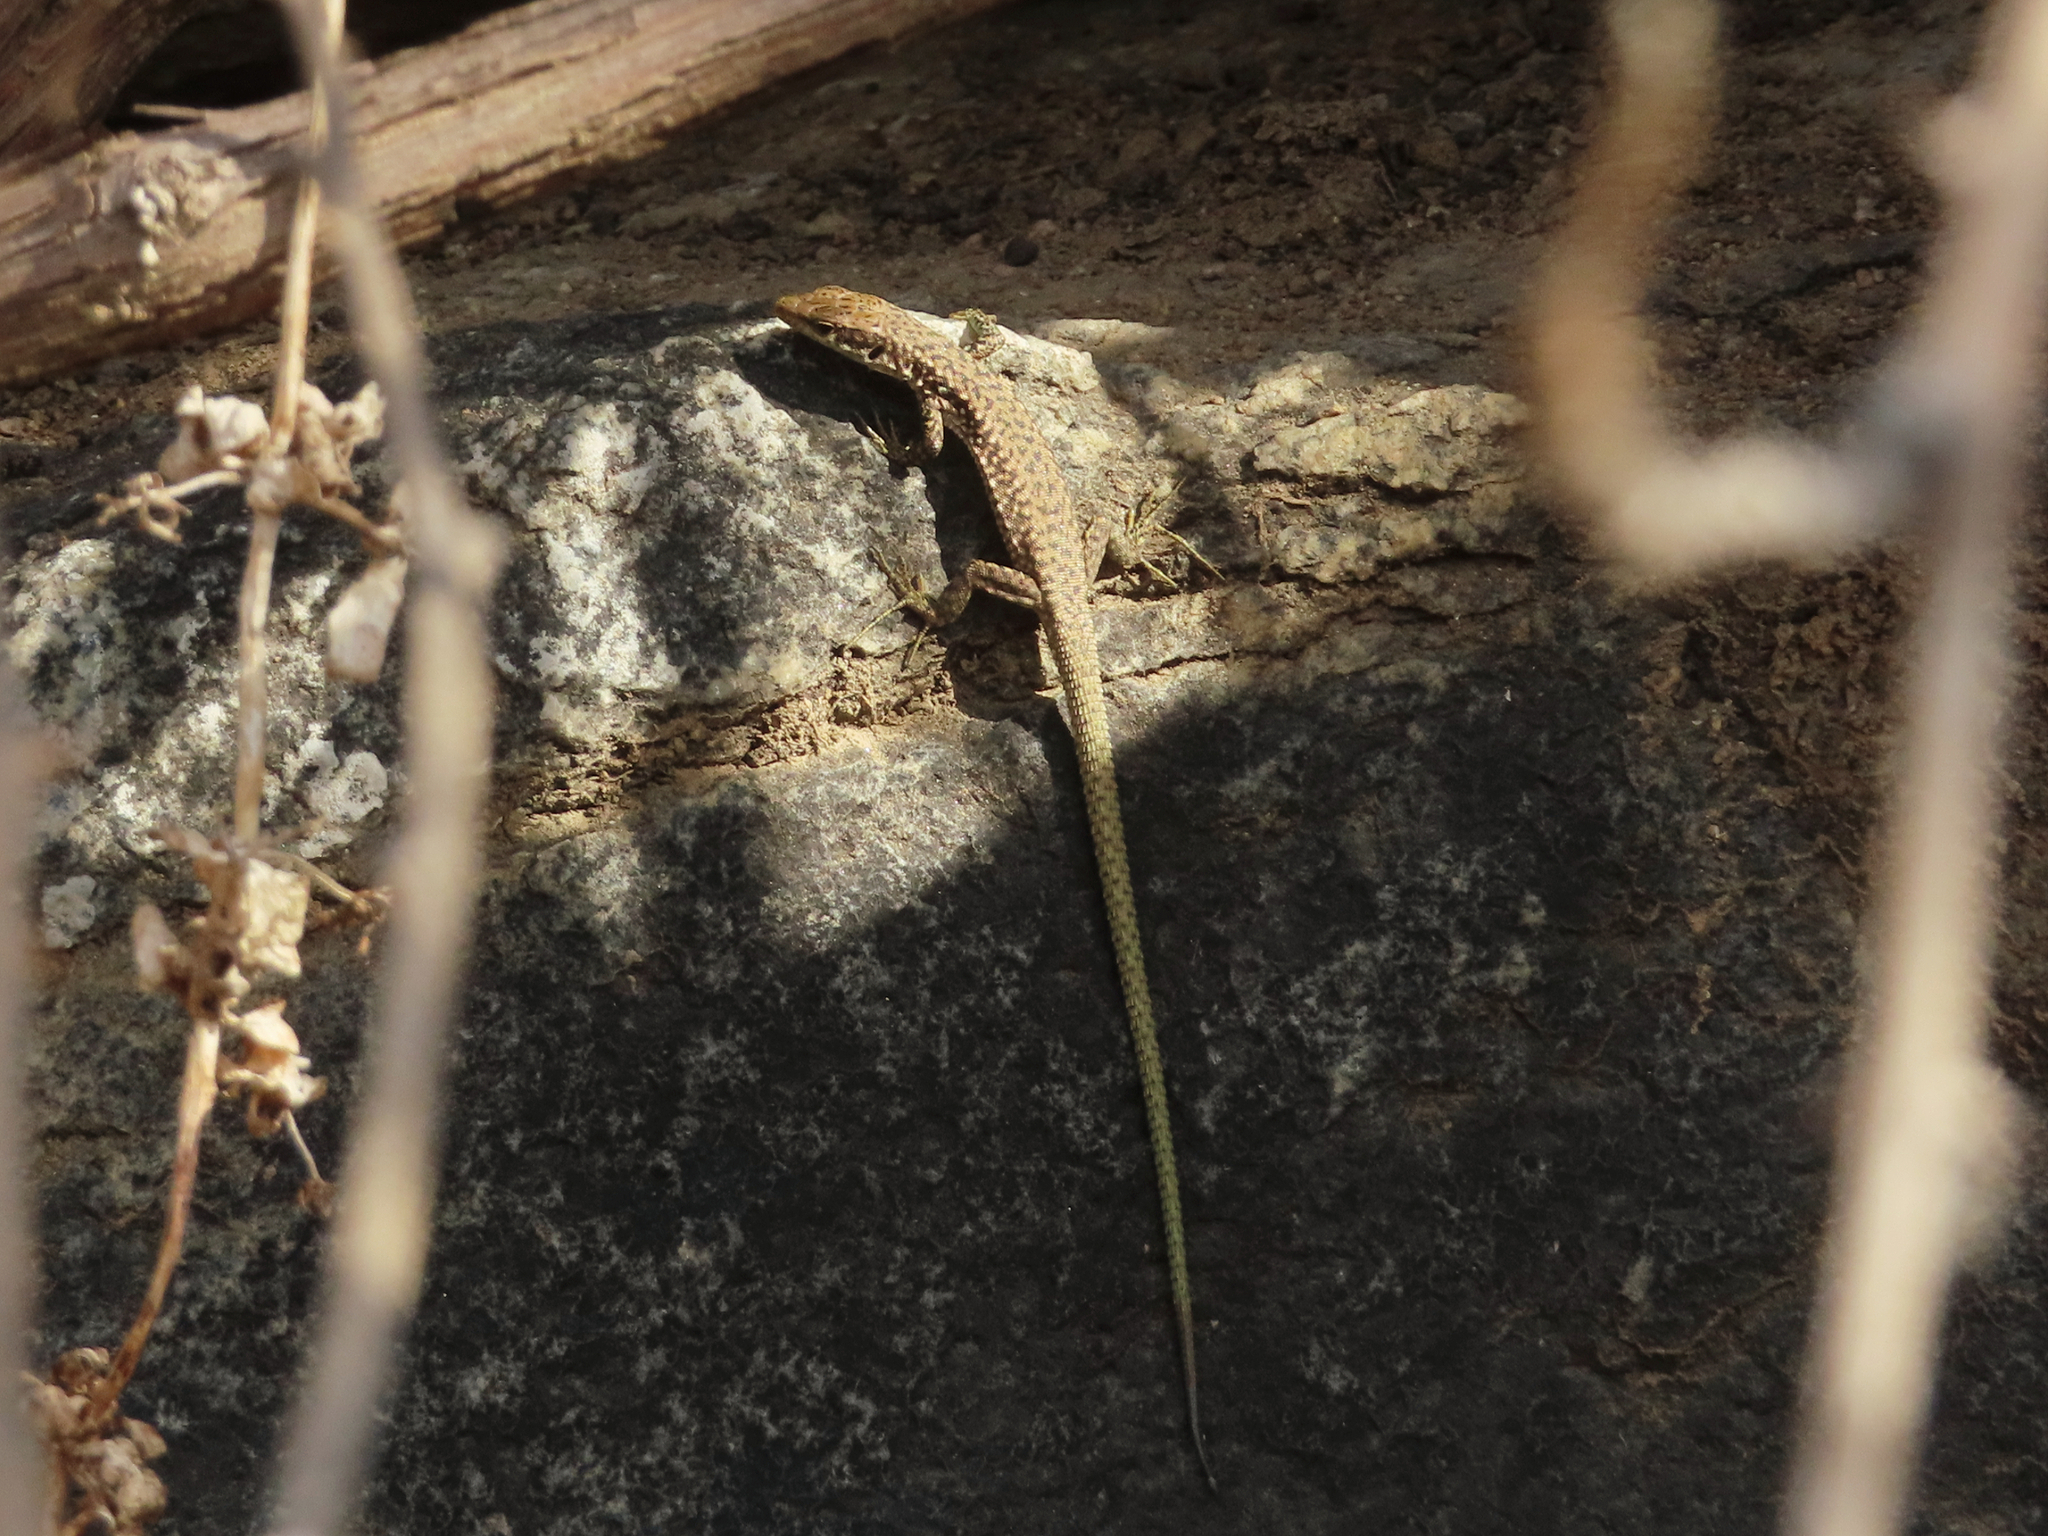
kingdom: Animalia
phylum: Chordata
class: Squamata
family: Lacertidae
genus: Darevskia
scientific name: Darevskia raddei
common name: Radde's lizard
